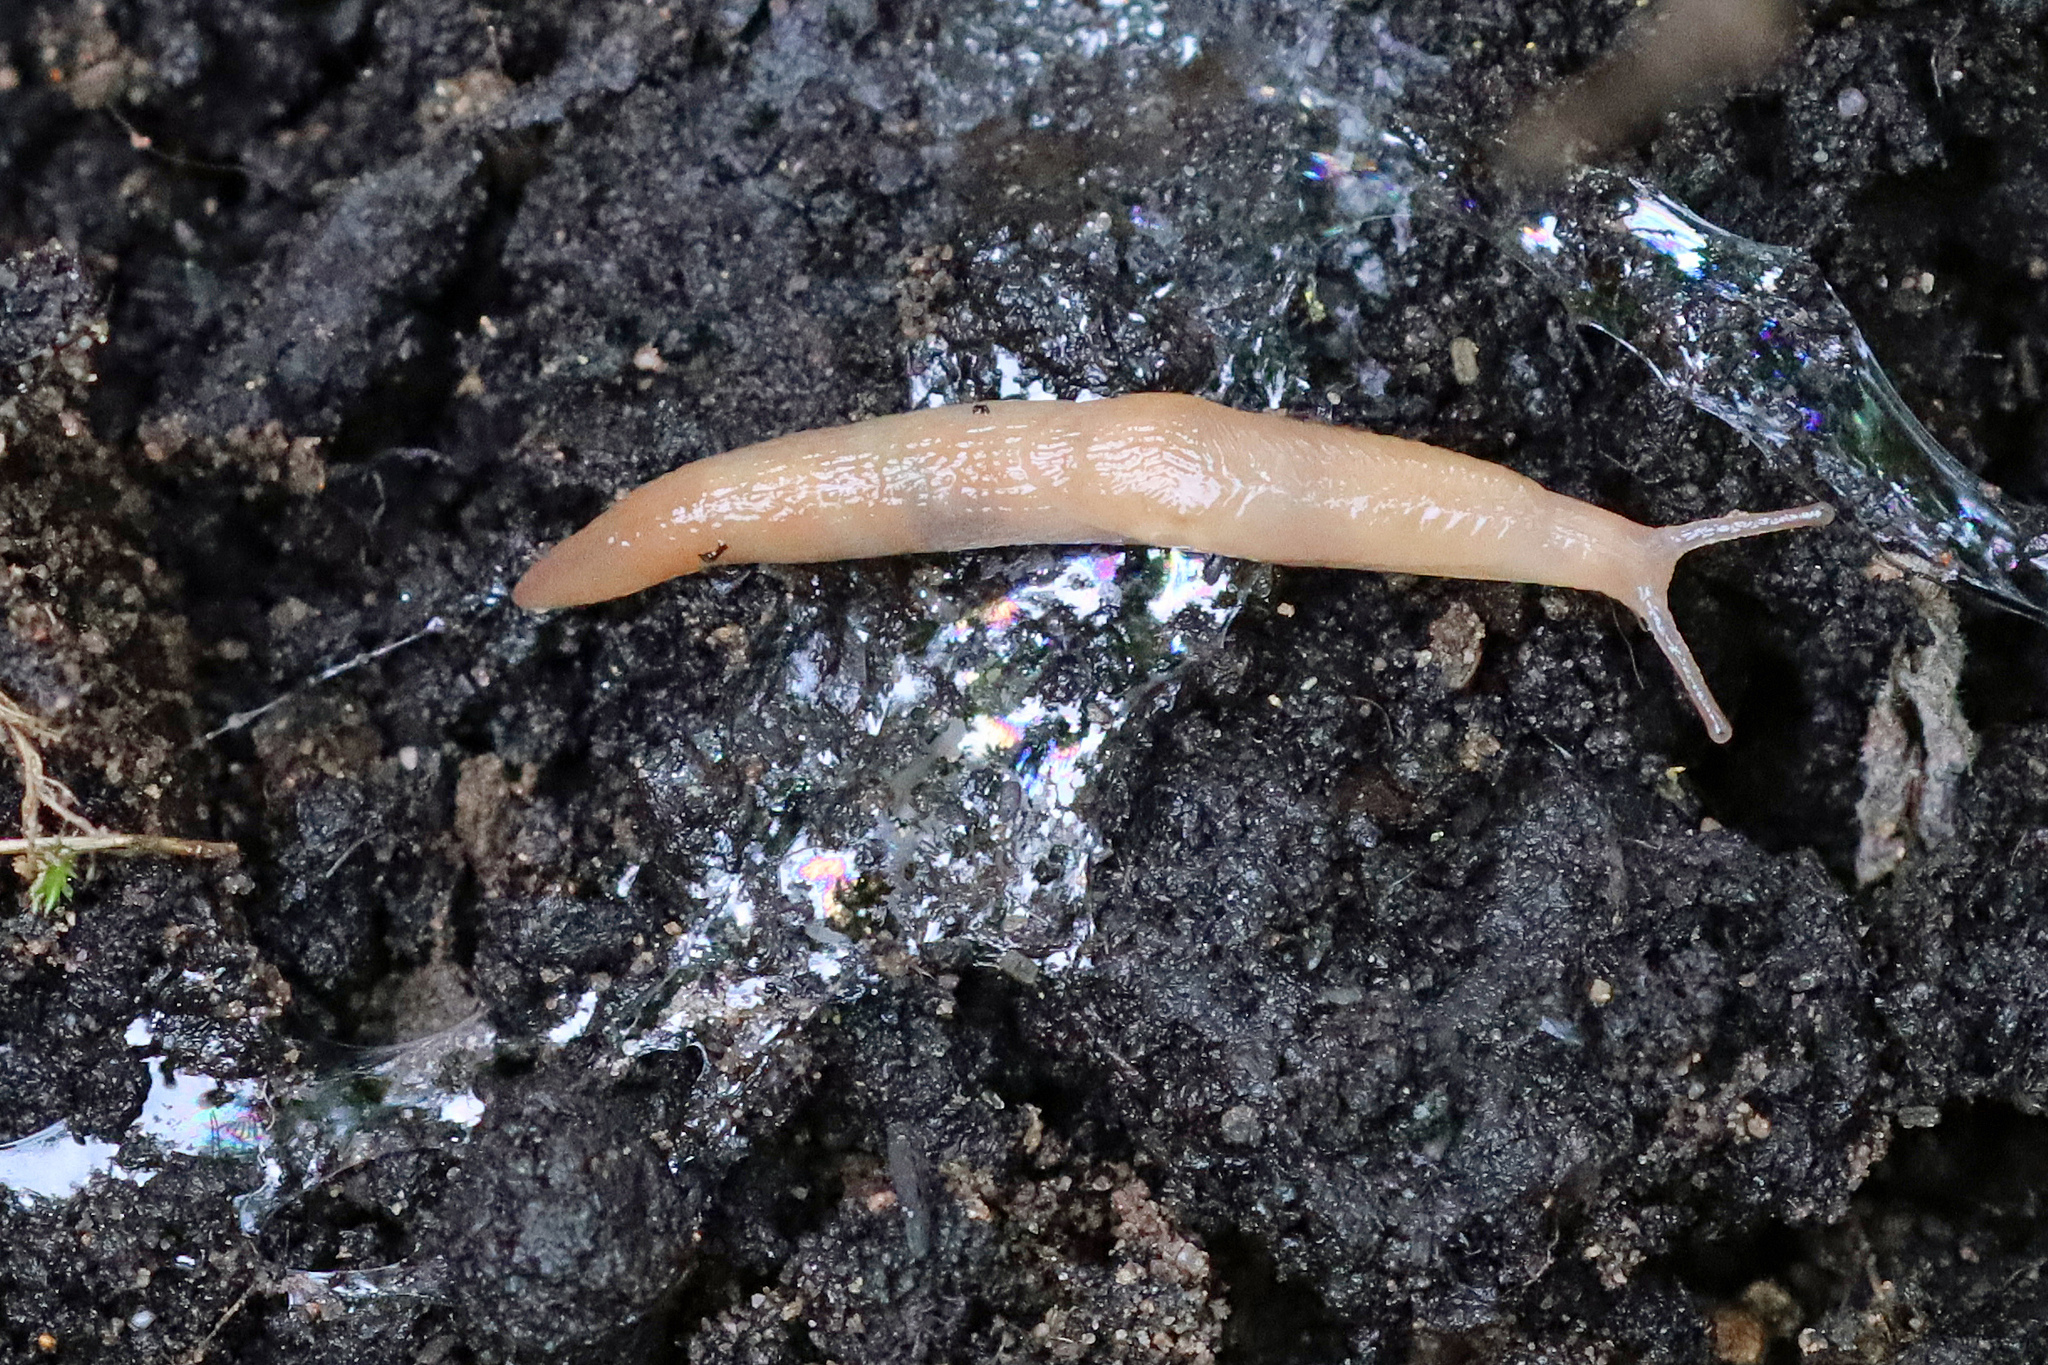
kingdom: Animalia
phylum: Mollusca
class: Gastropoda
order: Stylommatophora
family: Agriolimacidae
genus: Deroceras
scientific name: Deroceras invadens
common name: Caruana's slug
